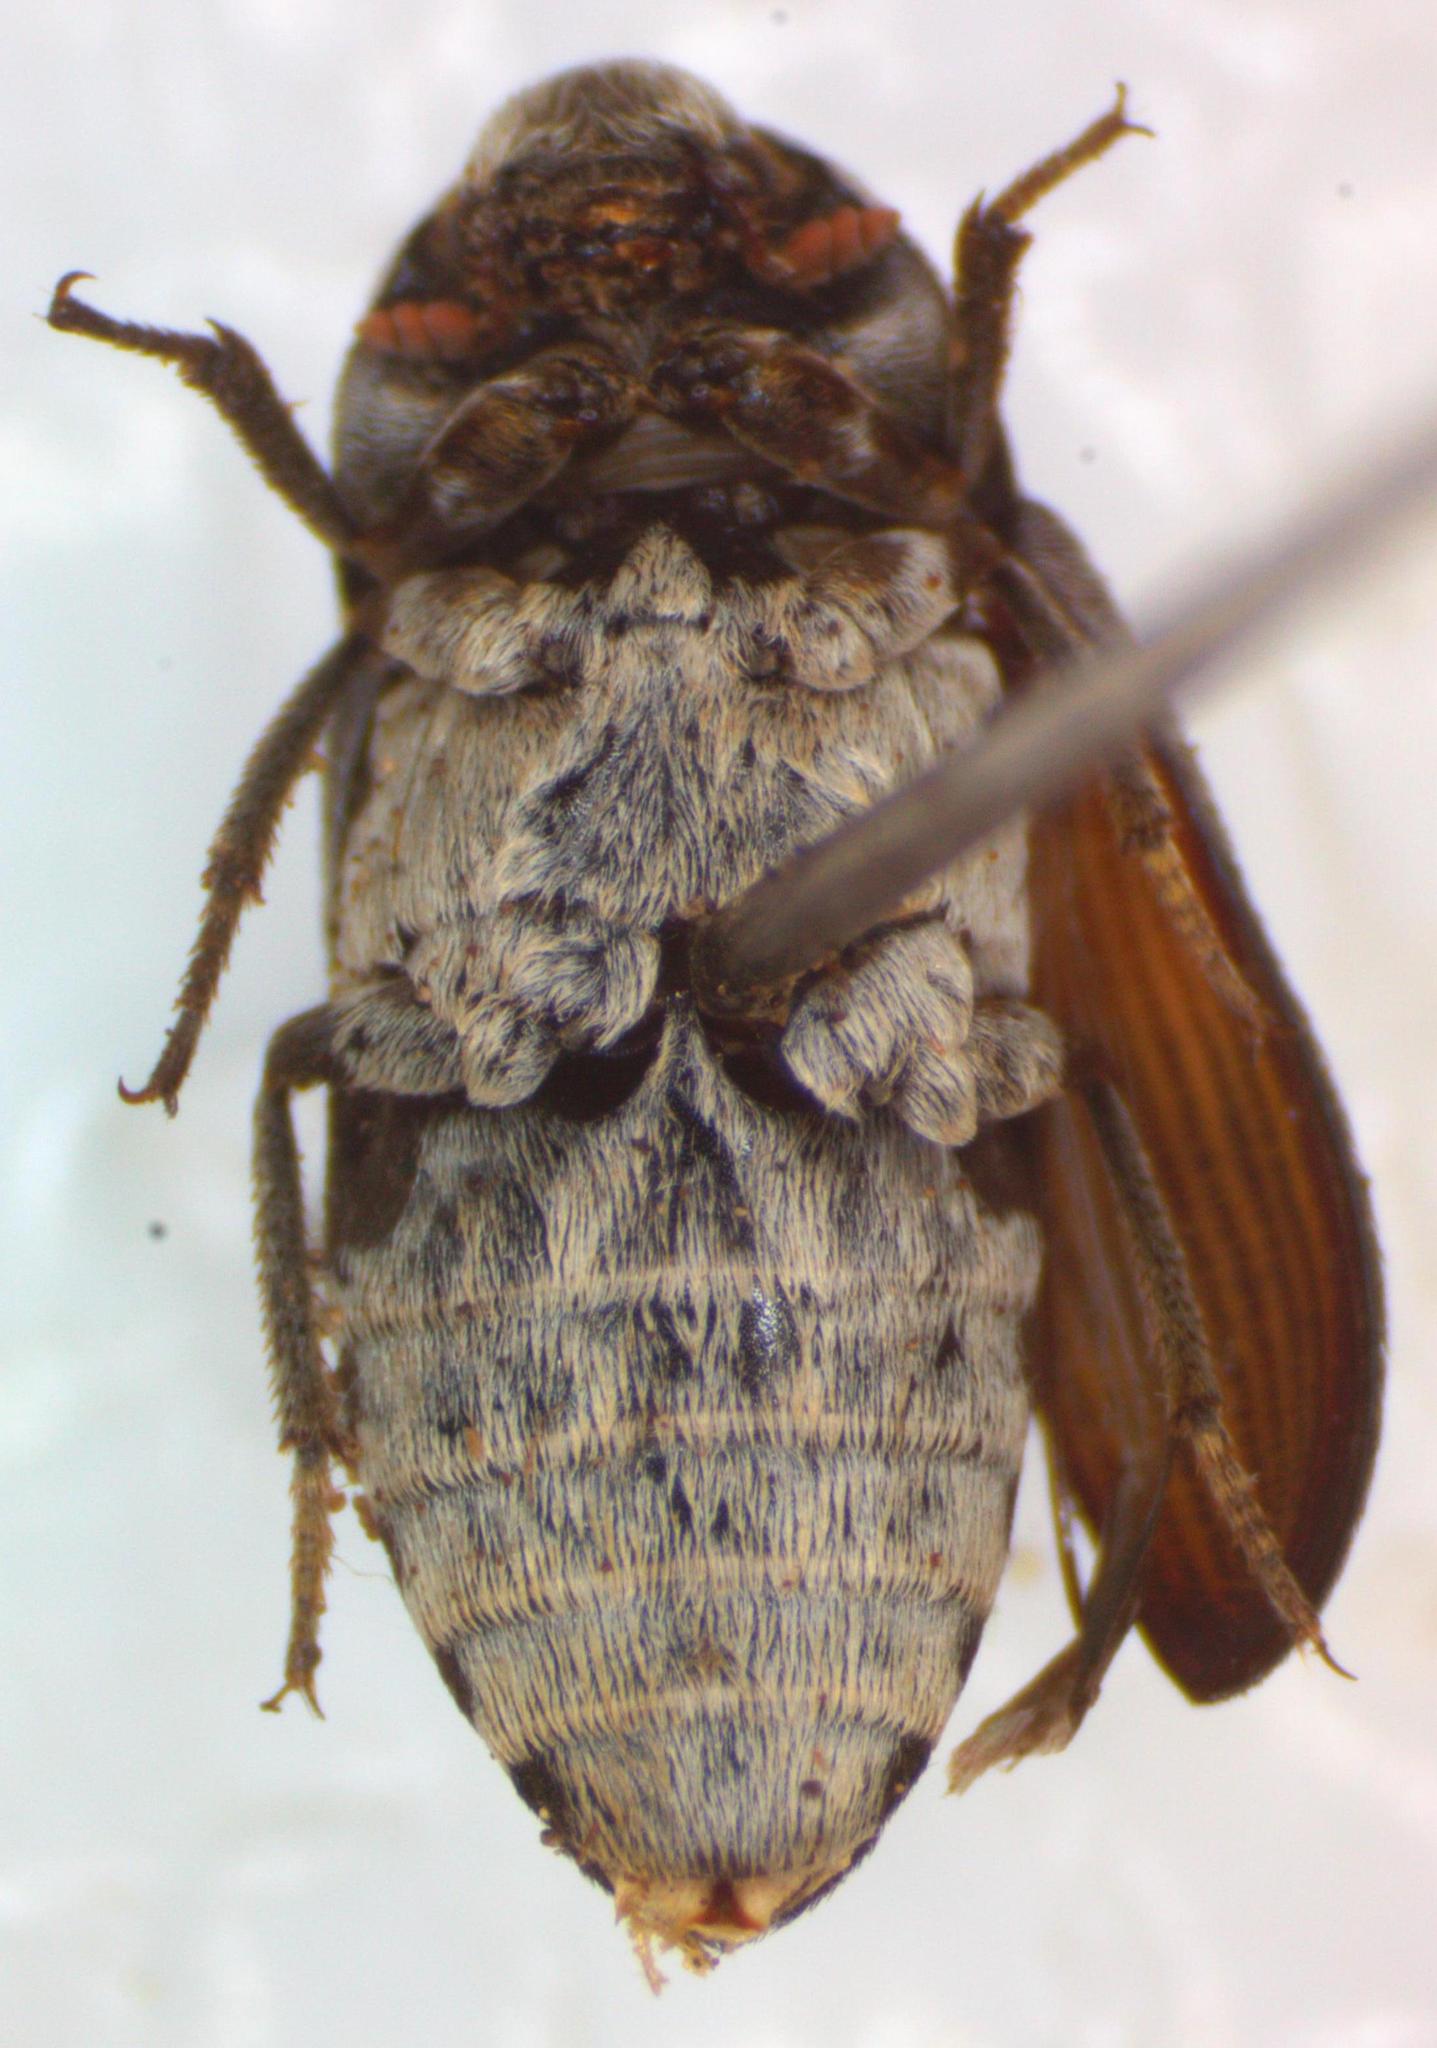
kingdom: Animalia
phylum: Arthropoda
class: Insecta
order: Coleoptera
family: Dermestidae
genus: Dermestes
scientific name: Dermestes carnivorus
